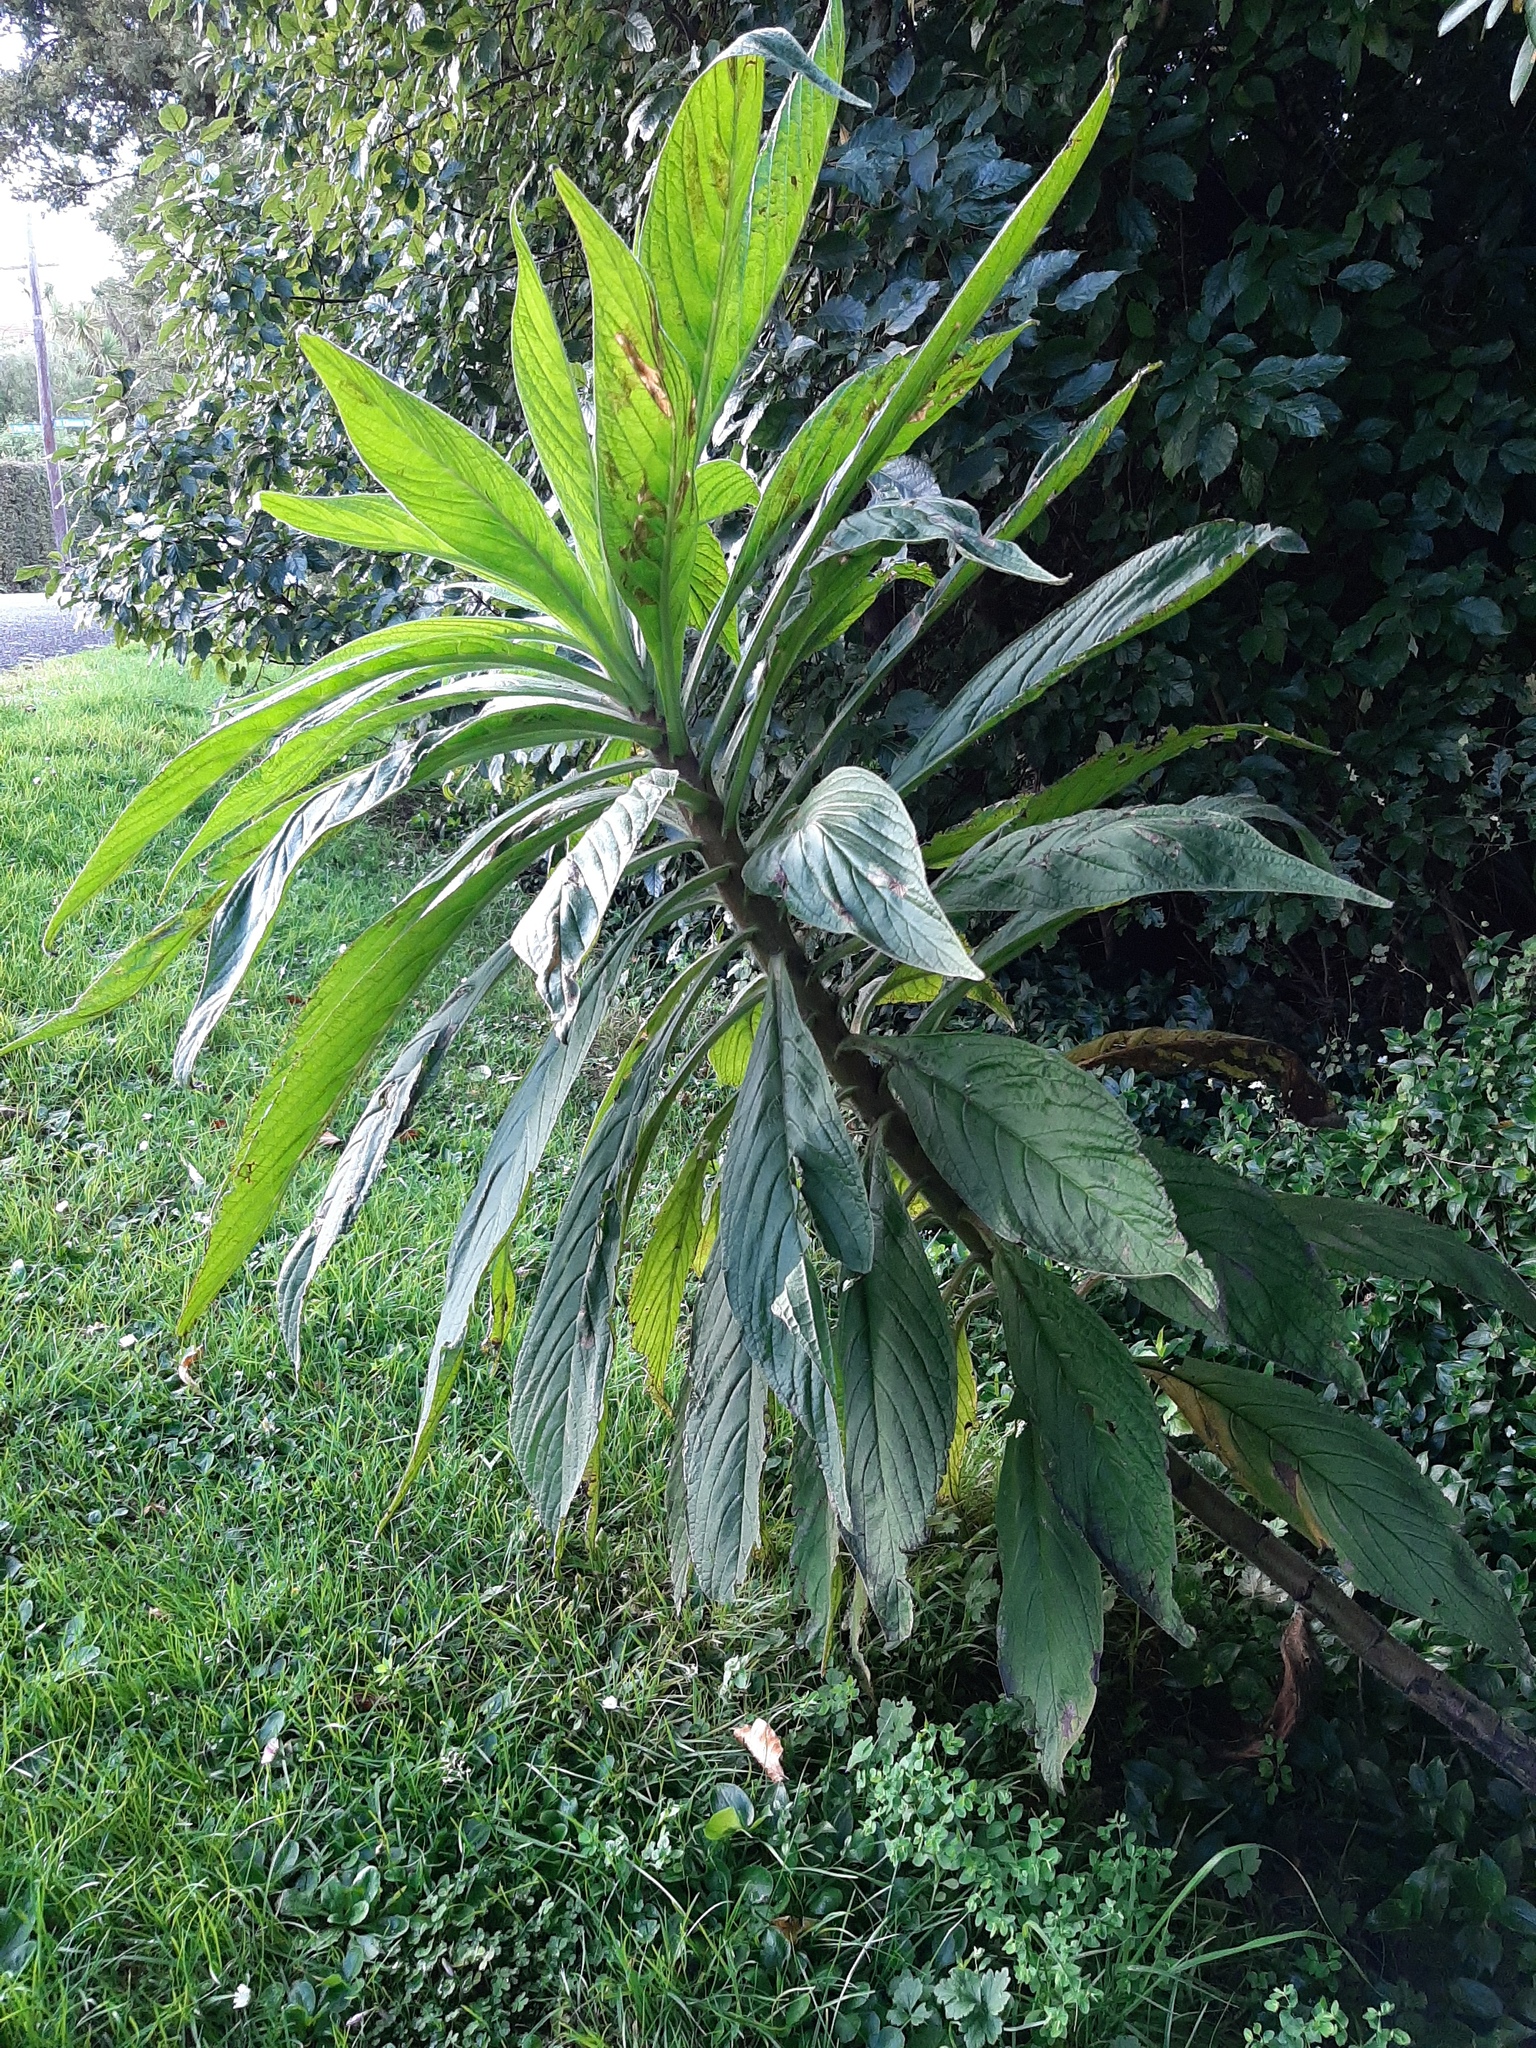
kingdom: Plantae
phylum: Tracheophyta
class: Magnoliopsida
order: Boraginales
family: Boraginaceae
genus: Echium
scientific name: Echium pininana
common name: Giant viper's-bugloss
